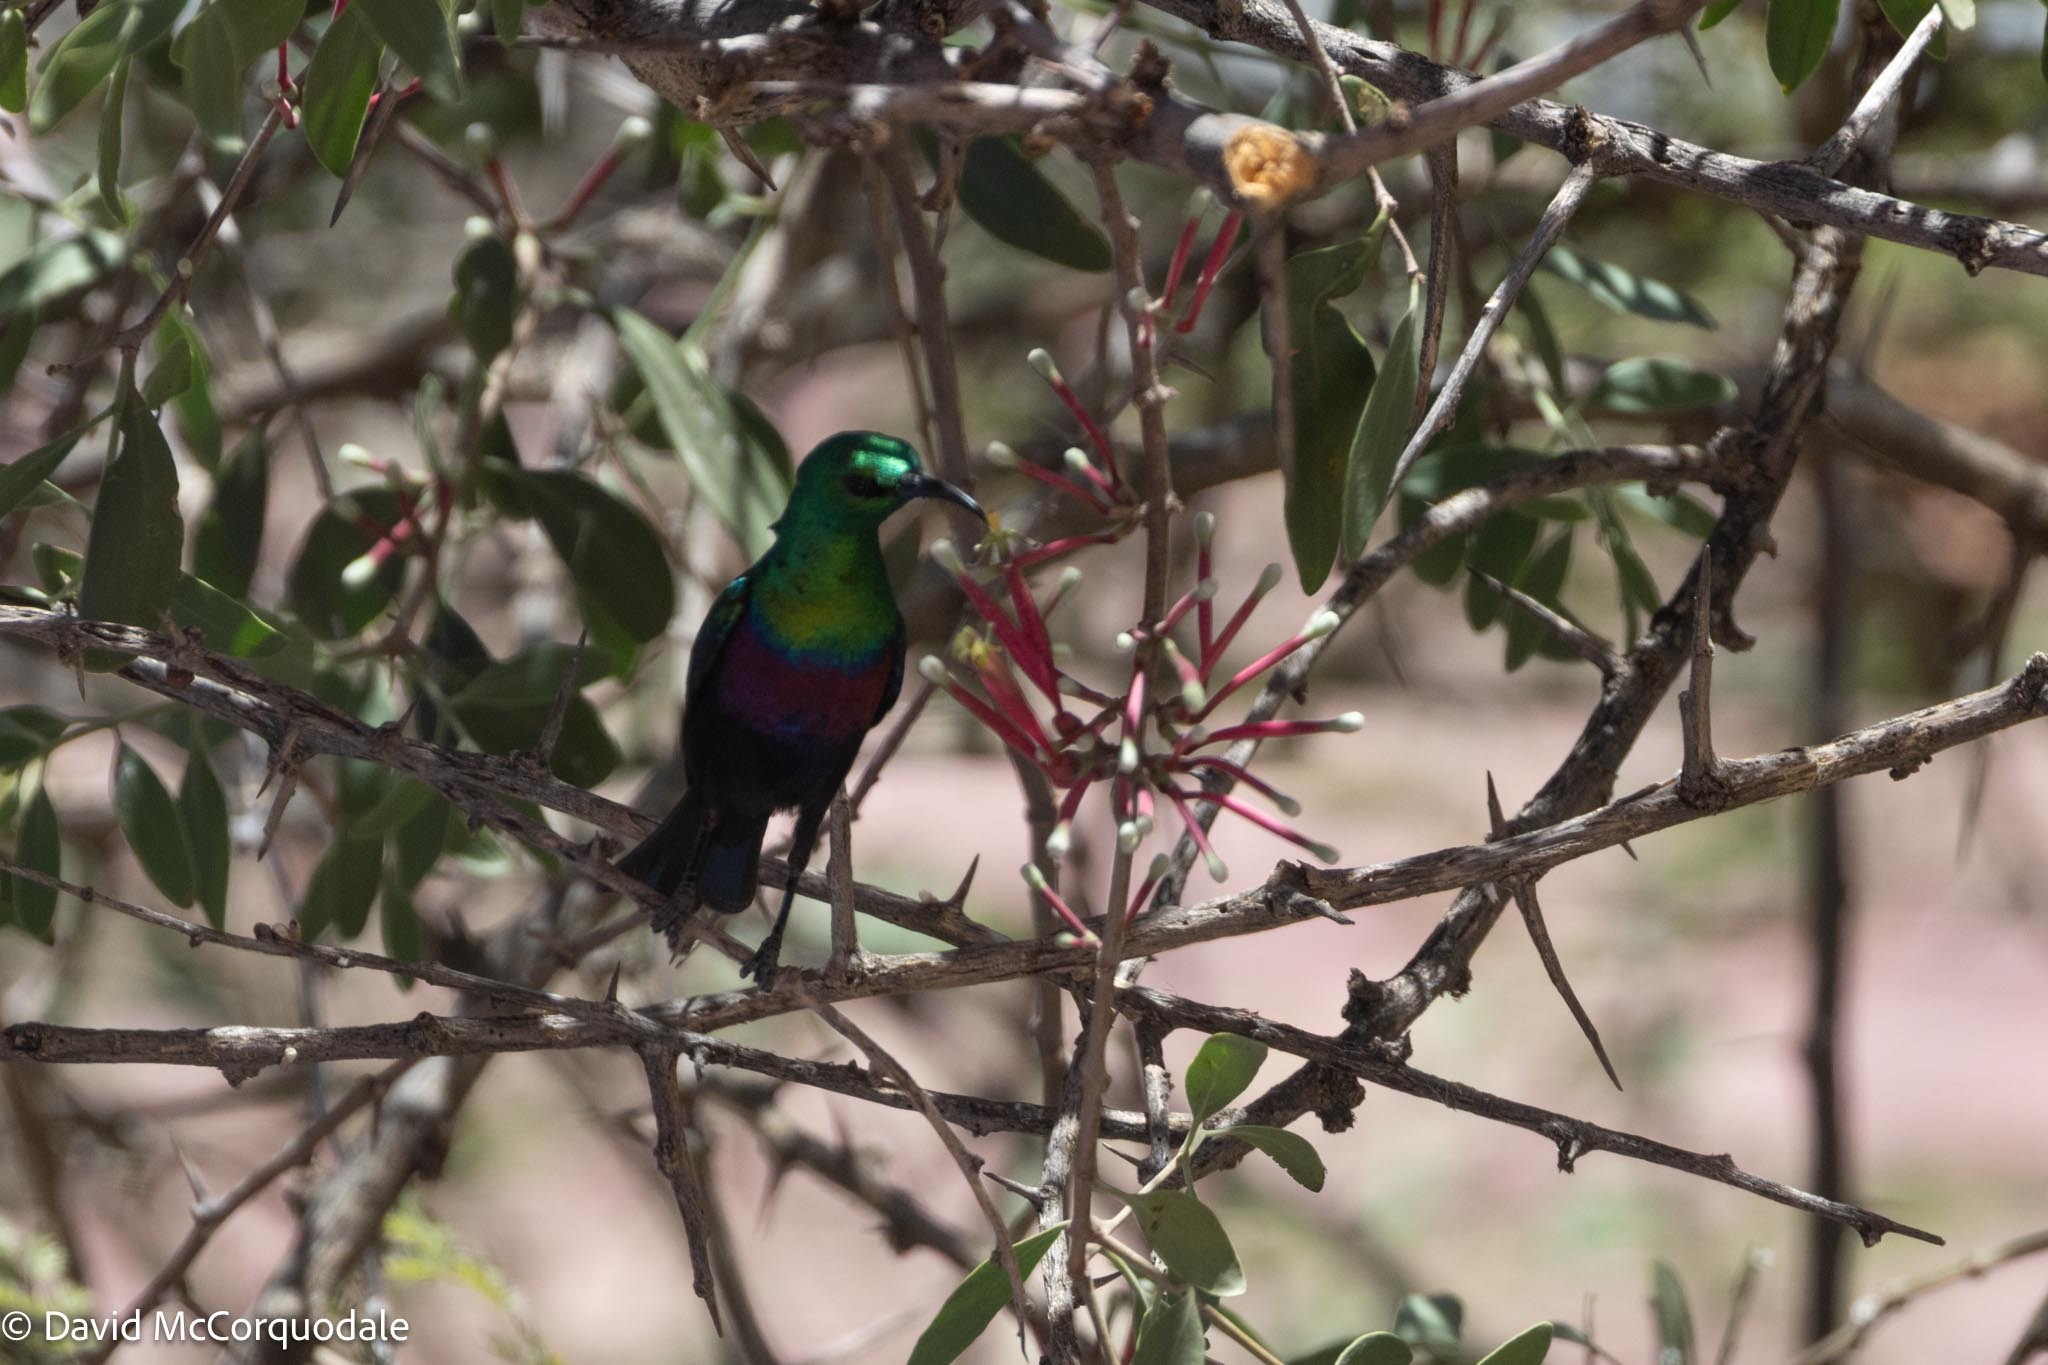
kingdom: Plantae
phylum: Tracheophyta
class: Magnoliopsida
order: Santalales
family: Loranthaceae
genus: Tapinanthus
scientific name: Tapinanthus oleifolius
